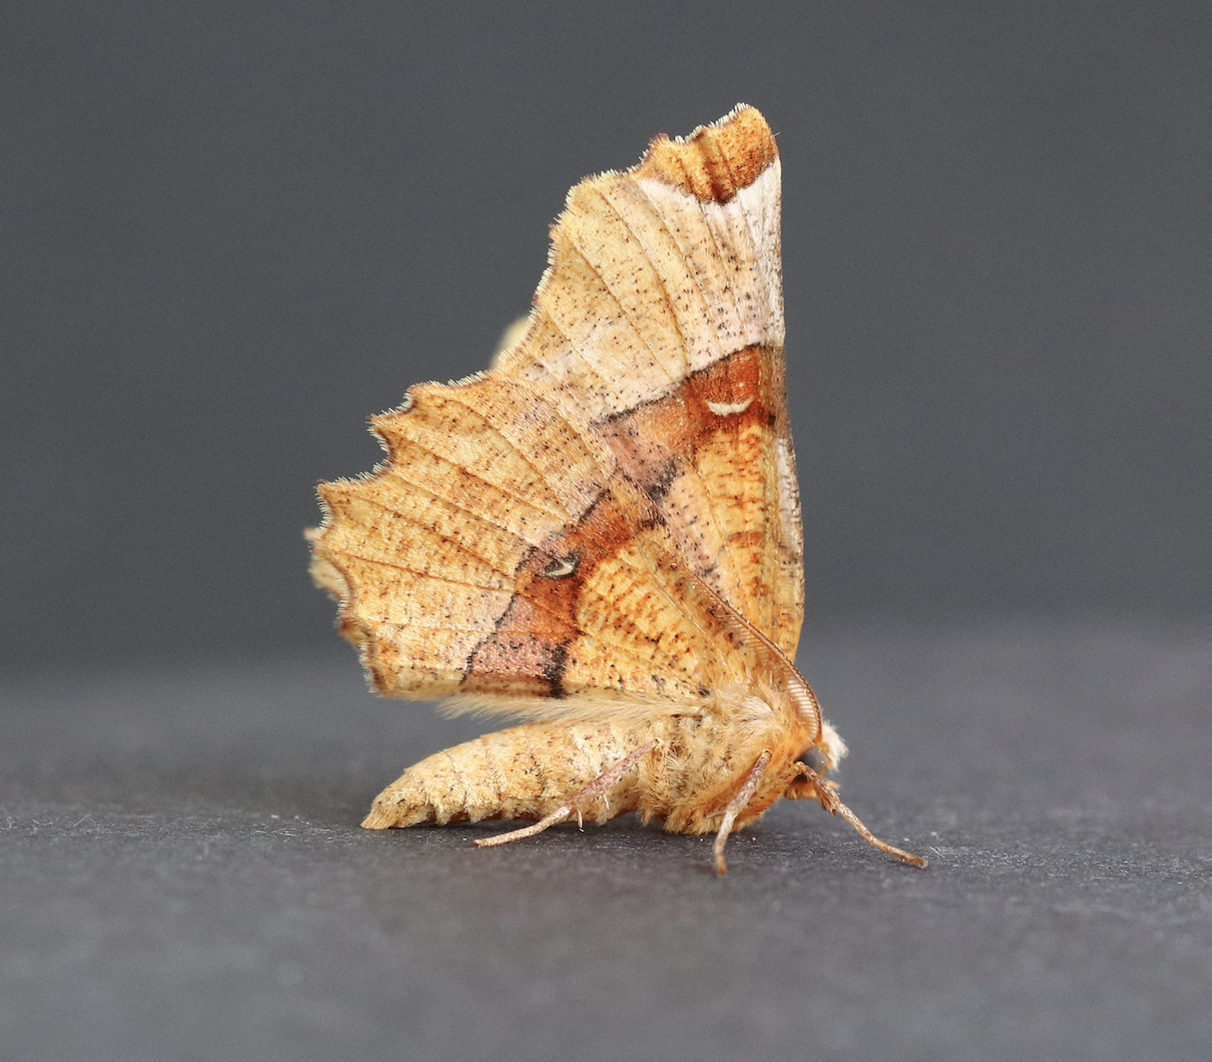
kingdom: Animalia
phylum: Arthropoda
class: Insecta
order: Lepidoptera
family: Geometridae
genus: Selenia
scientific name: Selenia lunularia
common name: Lunar thorn
